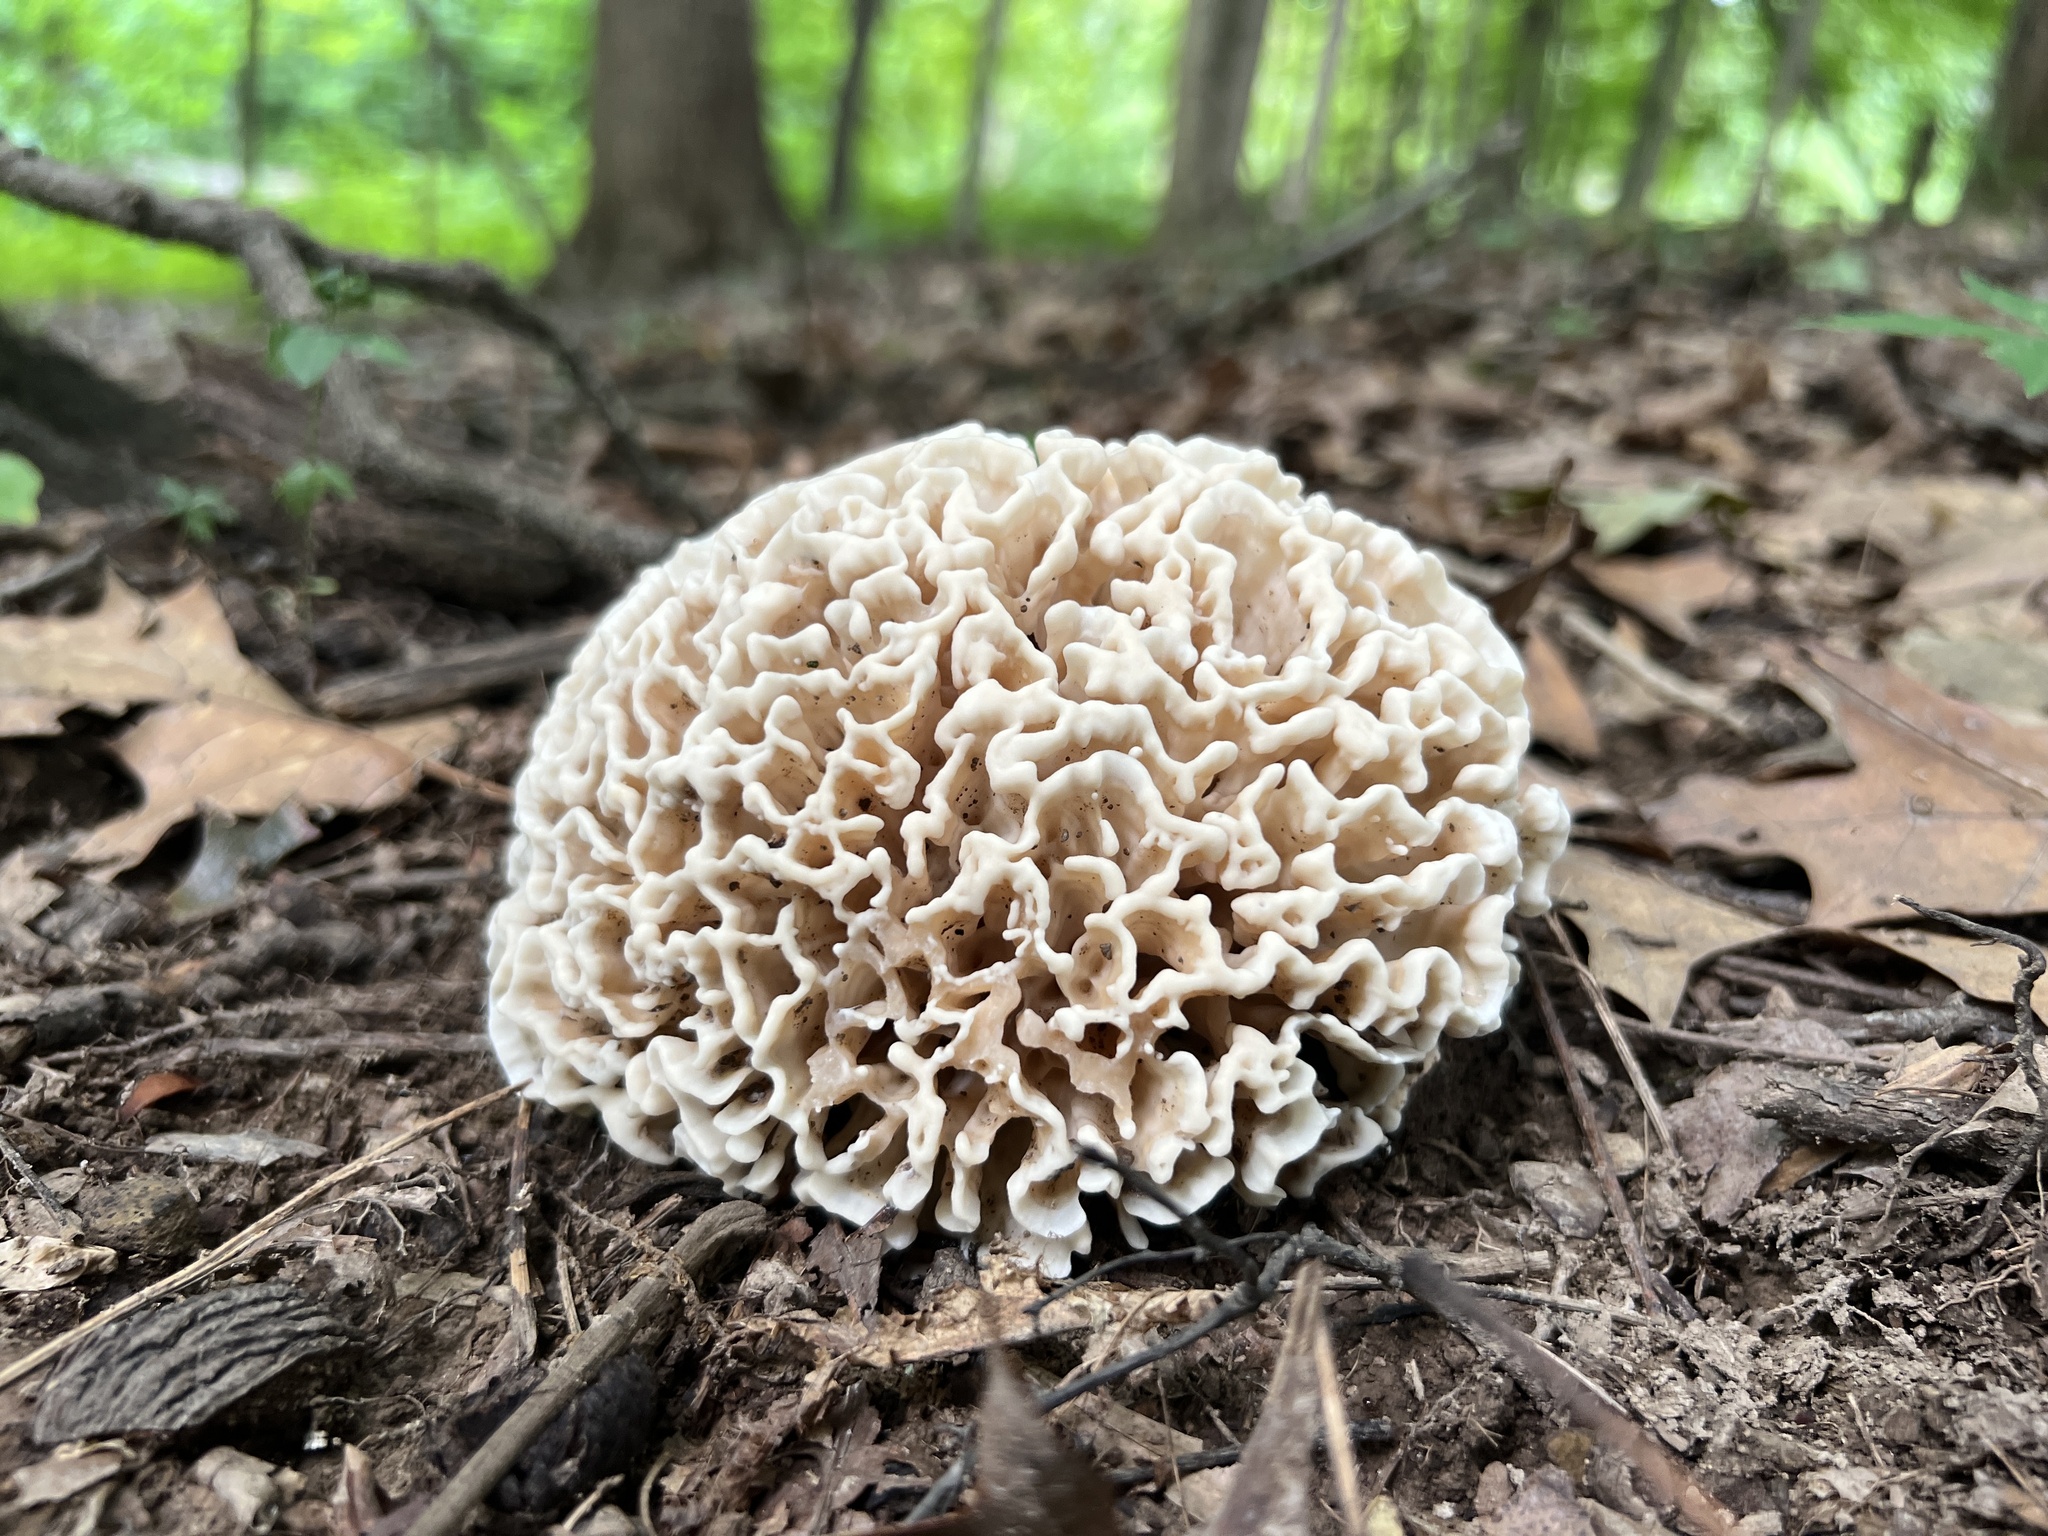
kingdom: Fungi
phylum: Basidiomycota
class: Agaricomycetes
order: Polyporales
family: Sparassidaceae
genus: Sparassis
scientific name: Sparassis spathulata
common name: Eastern cauliflower mushroom
